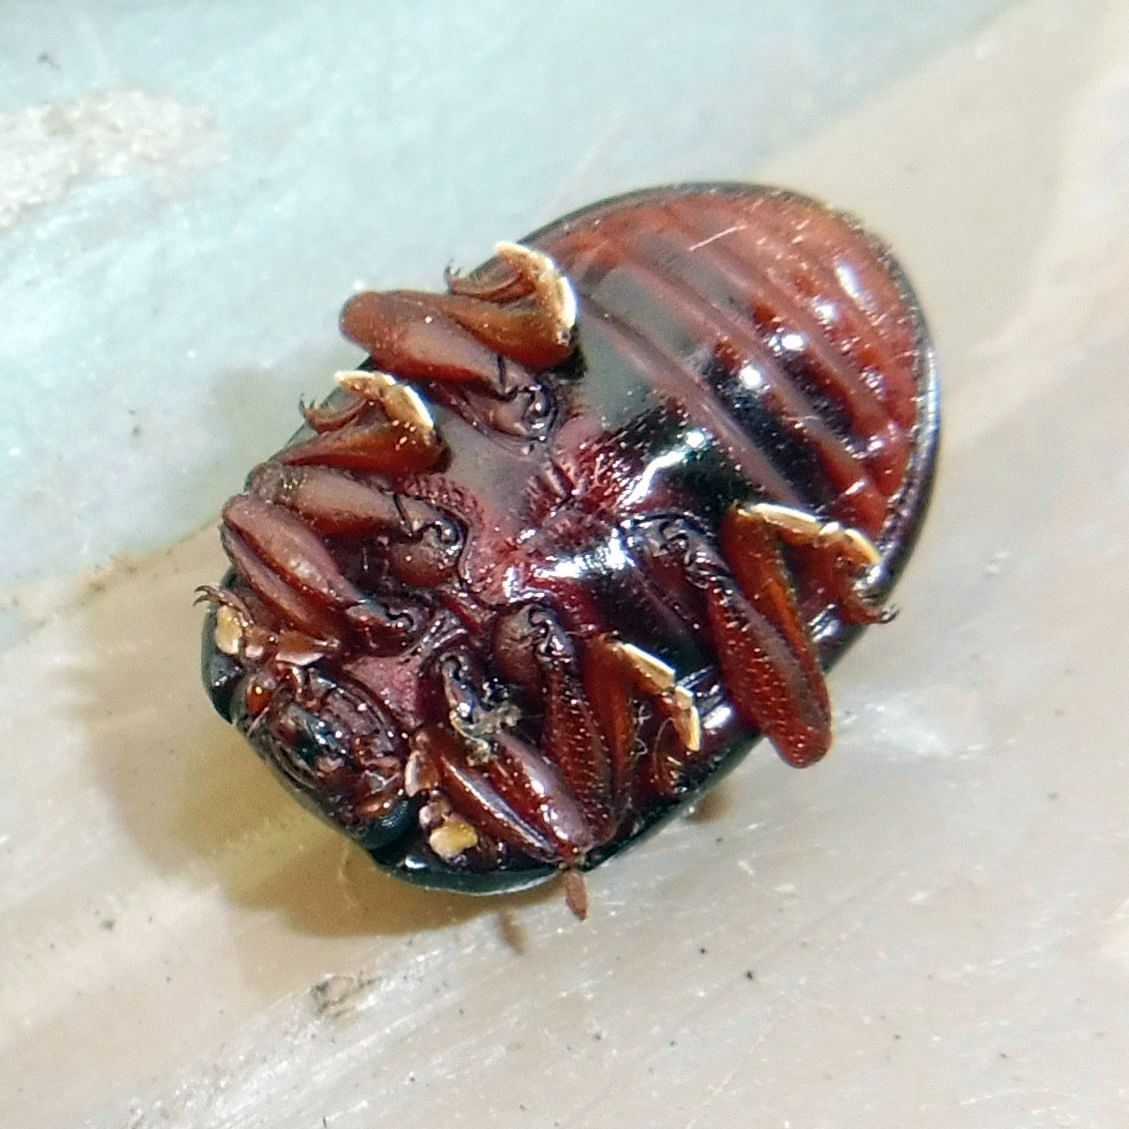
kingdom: Animalia
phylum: Arthropoda
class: Insecta
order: Coleoptera
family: Chrysomelidae
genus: Chrysolina
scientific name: Chrysolina bankii
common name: Leaf beetle
